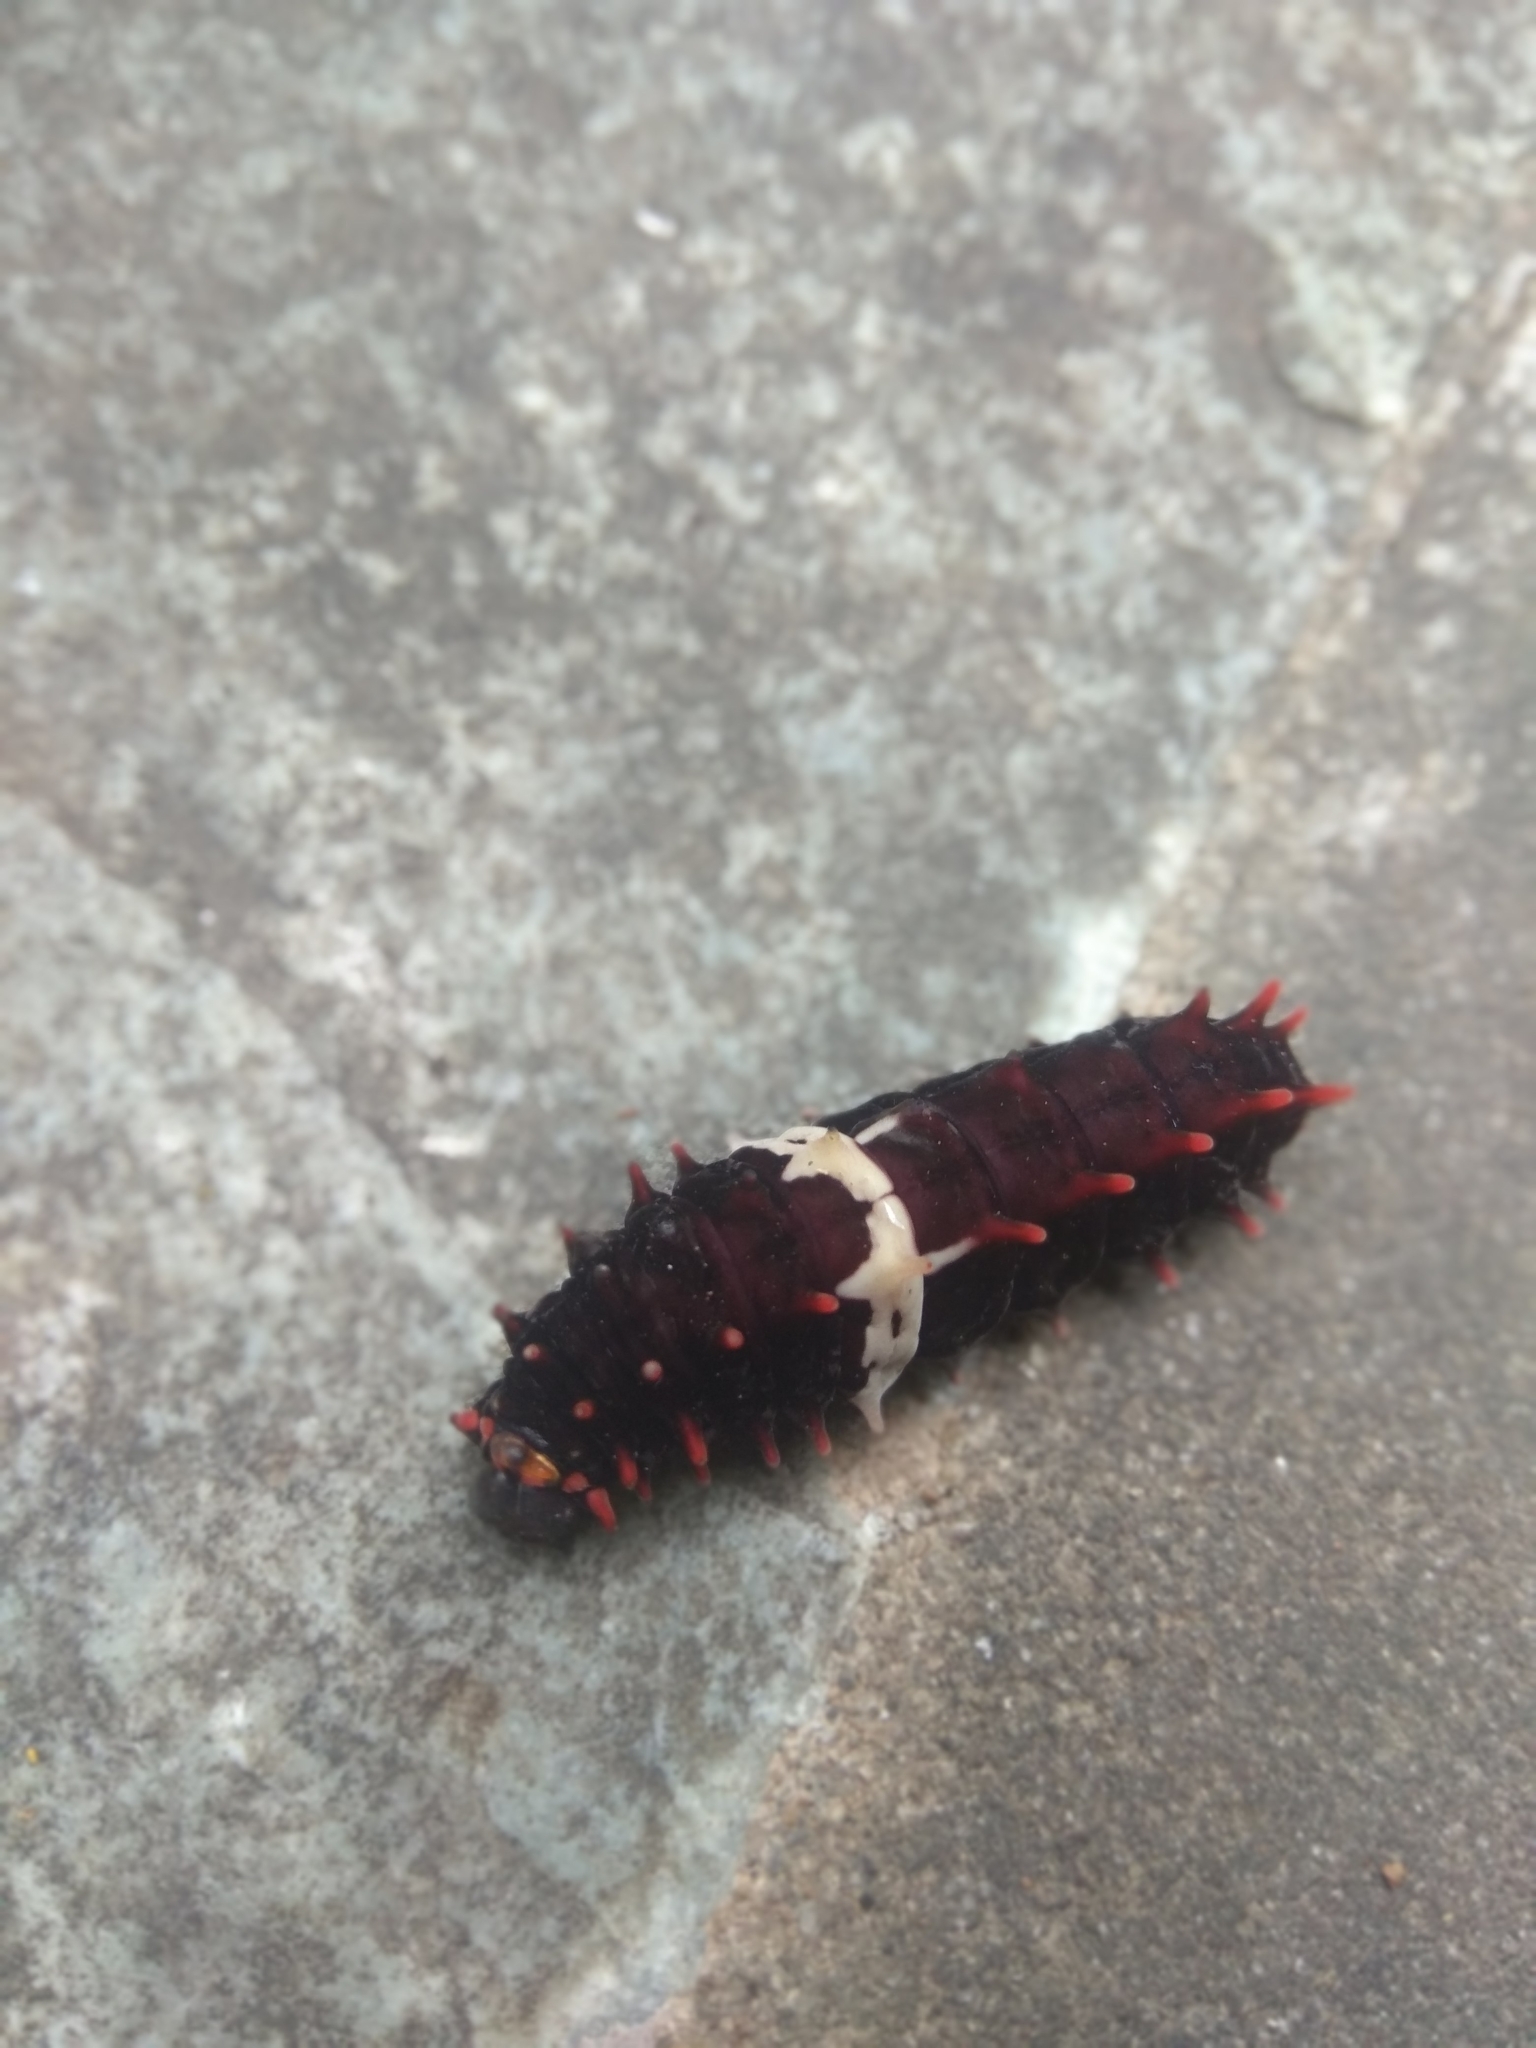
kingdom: Animalia
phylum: Arthropoda
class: Insecta
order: Lepidoptera
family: Papilionidae
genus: Pachliopta
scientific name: Pachliopta aristolochiae
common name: Common rose
